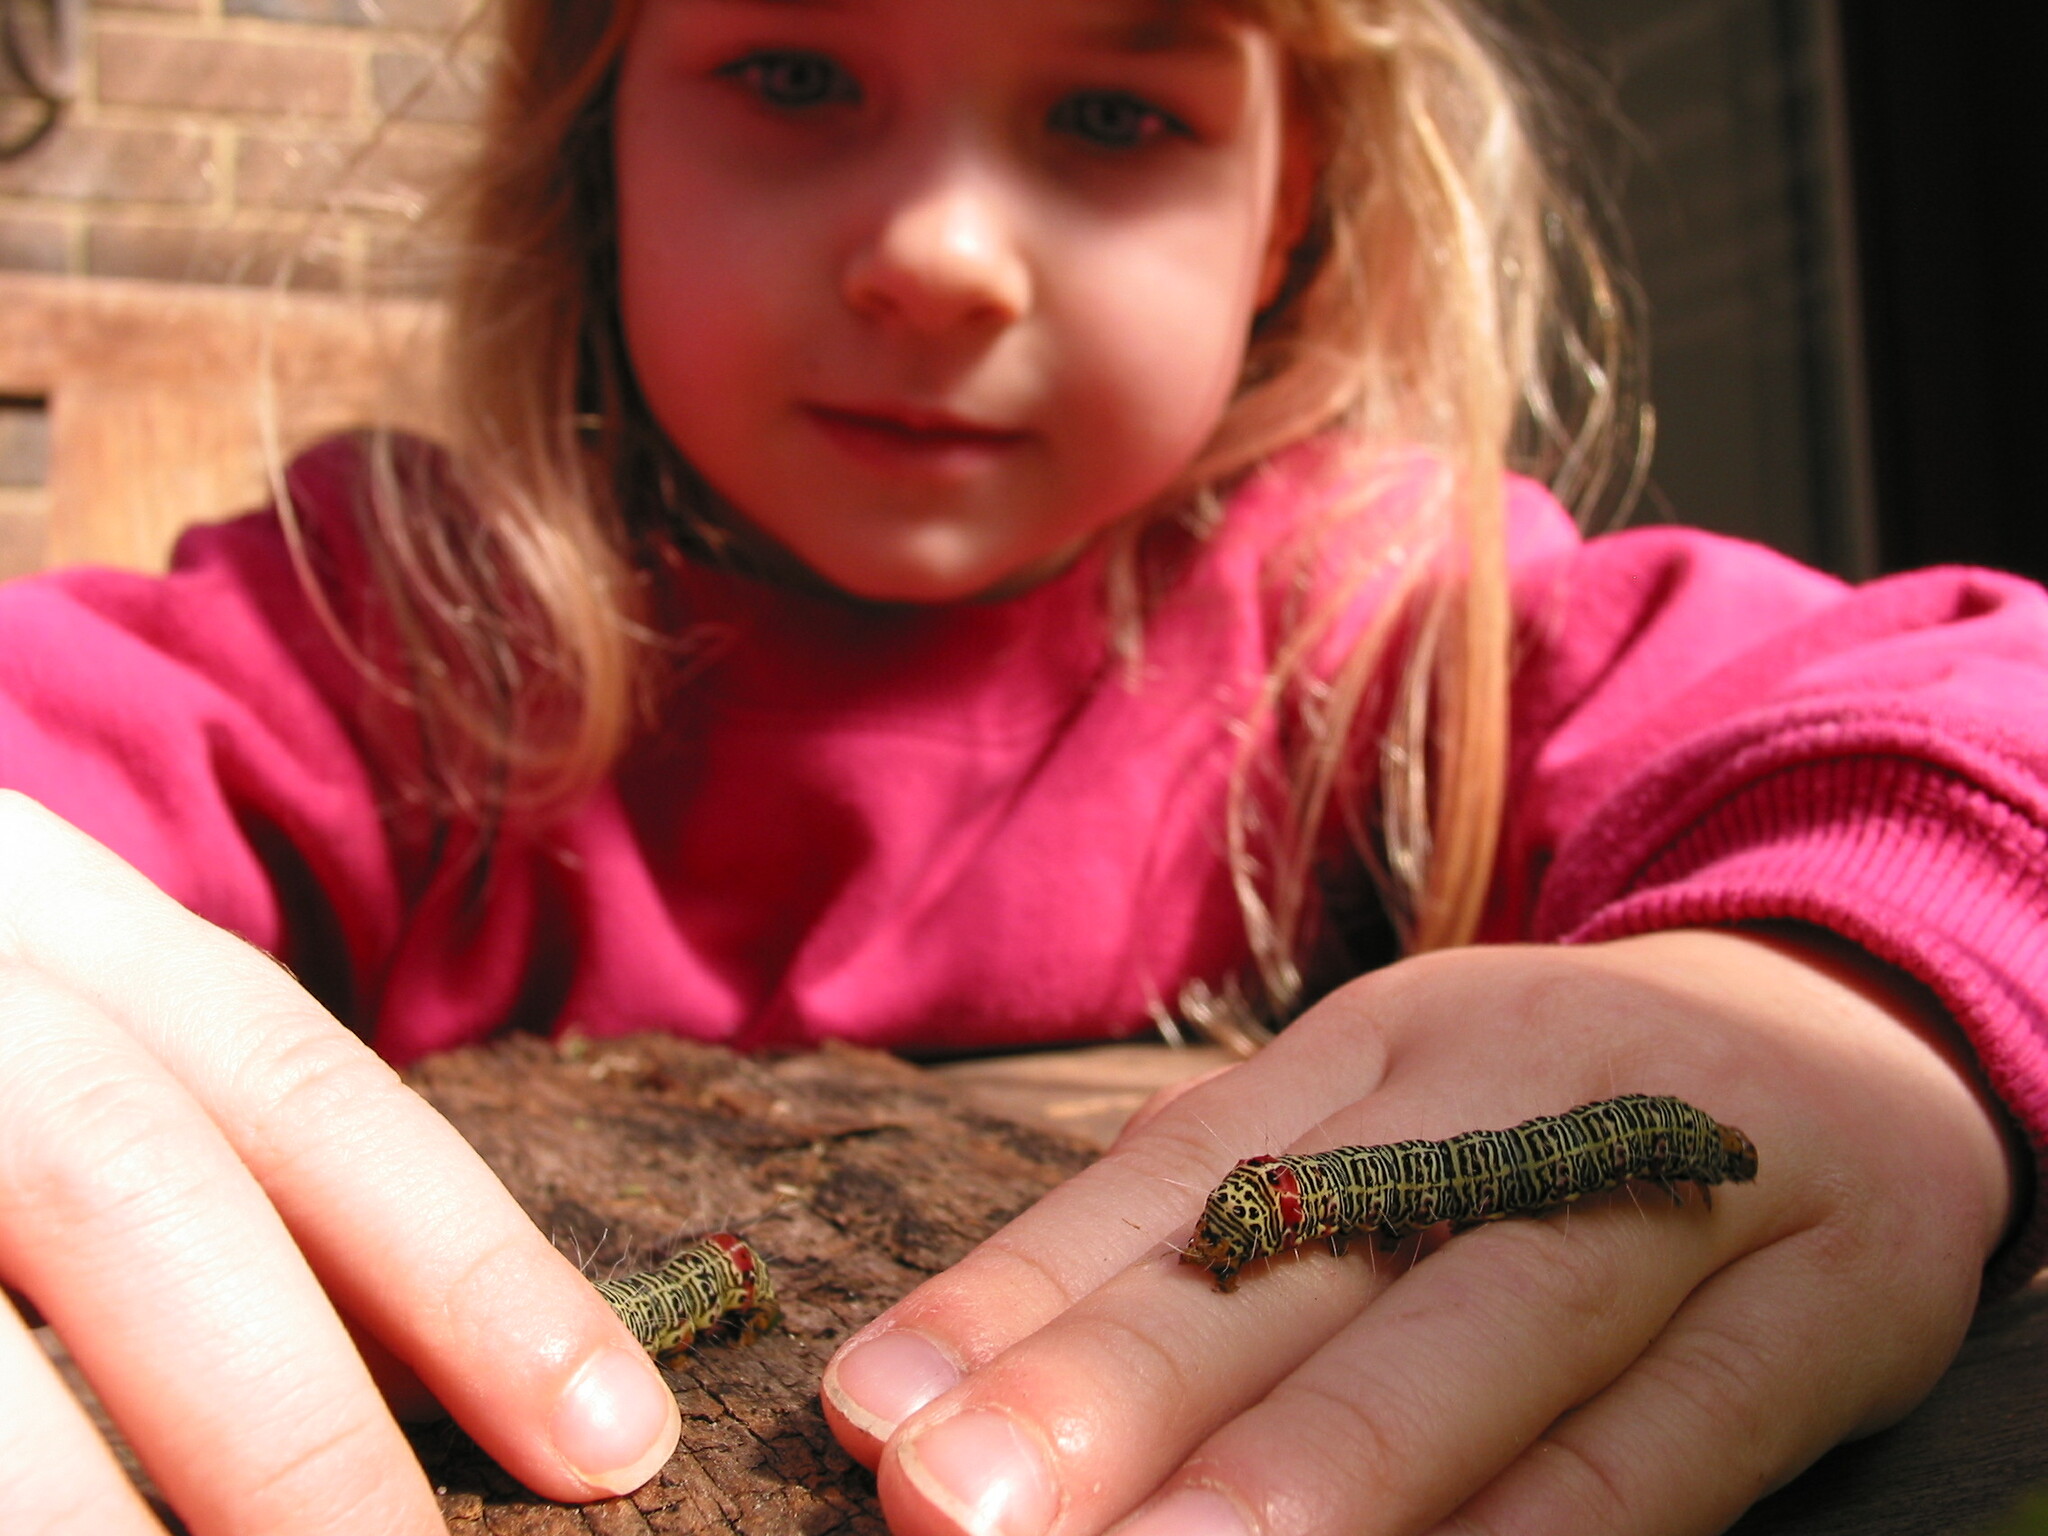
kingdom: Animalia
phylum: Arthropoda
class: Insecta
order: Lepidoptera
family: Noctuidae
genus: Phalaenoides
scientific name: Phalaenoides glycinae
